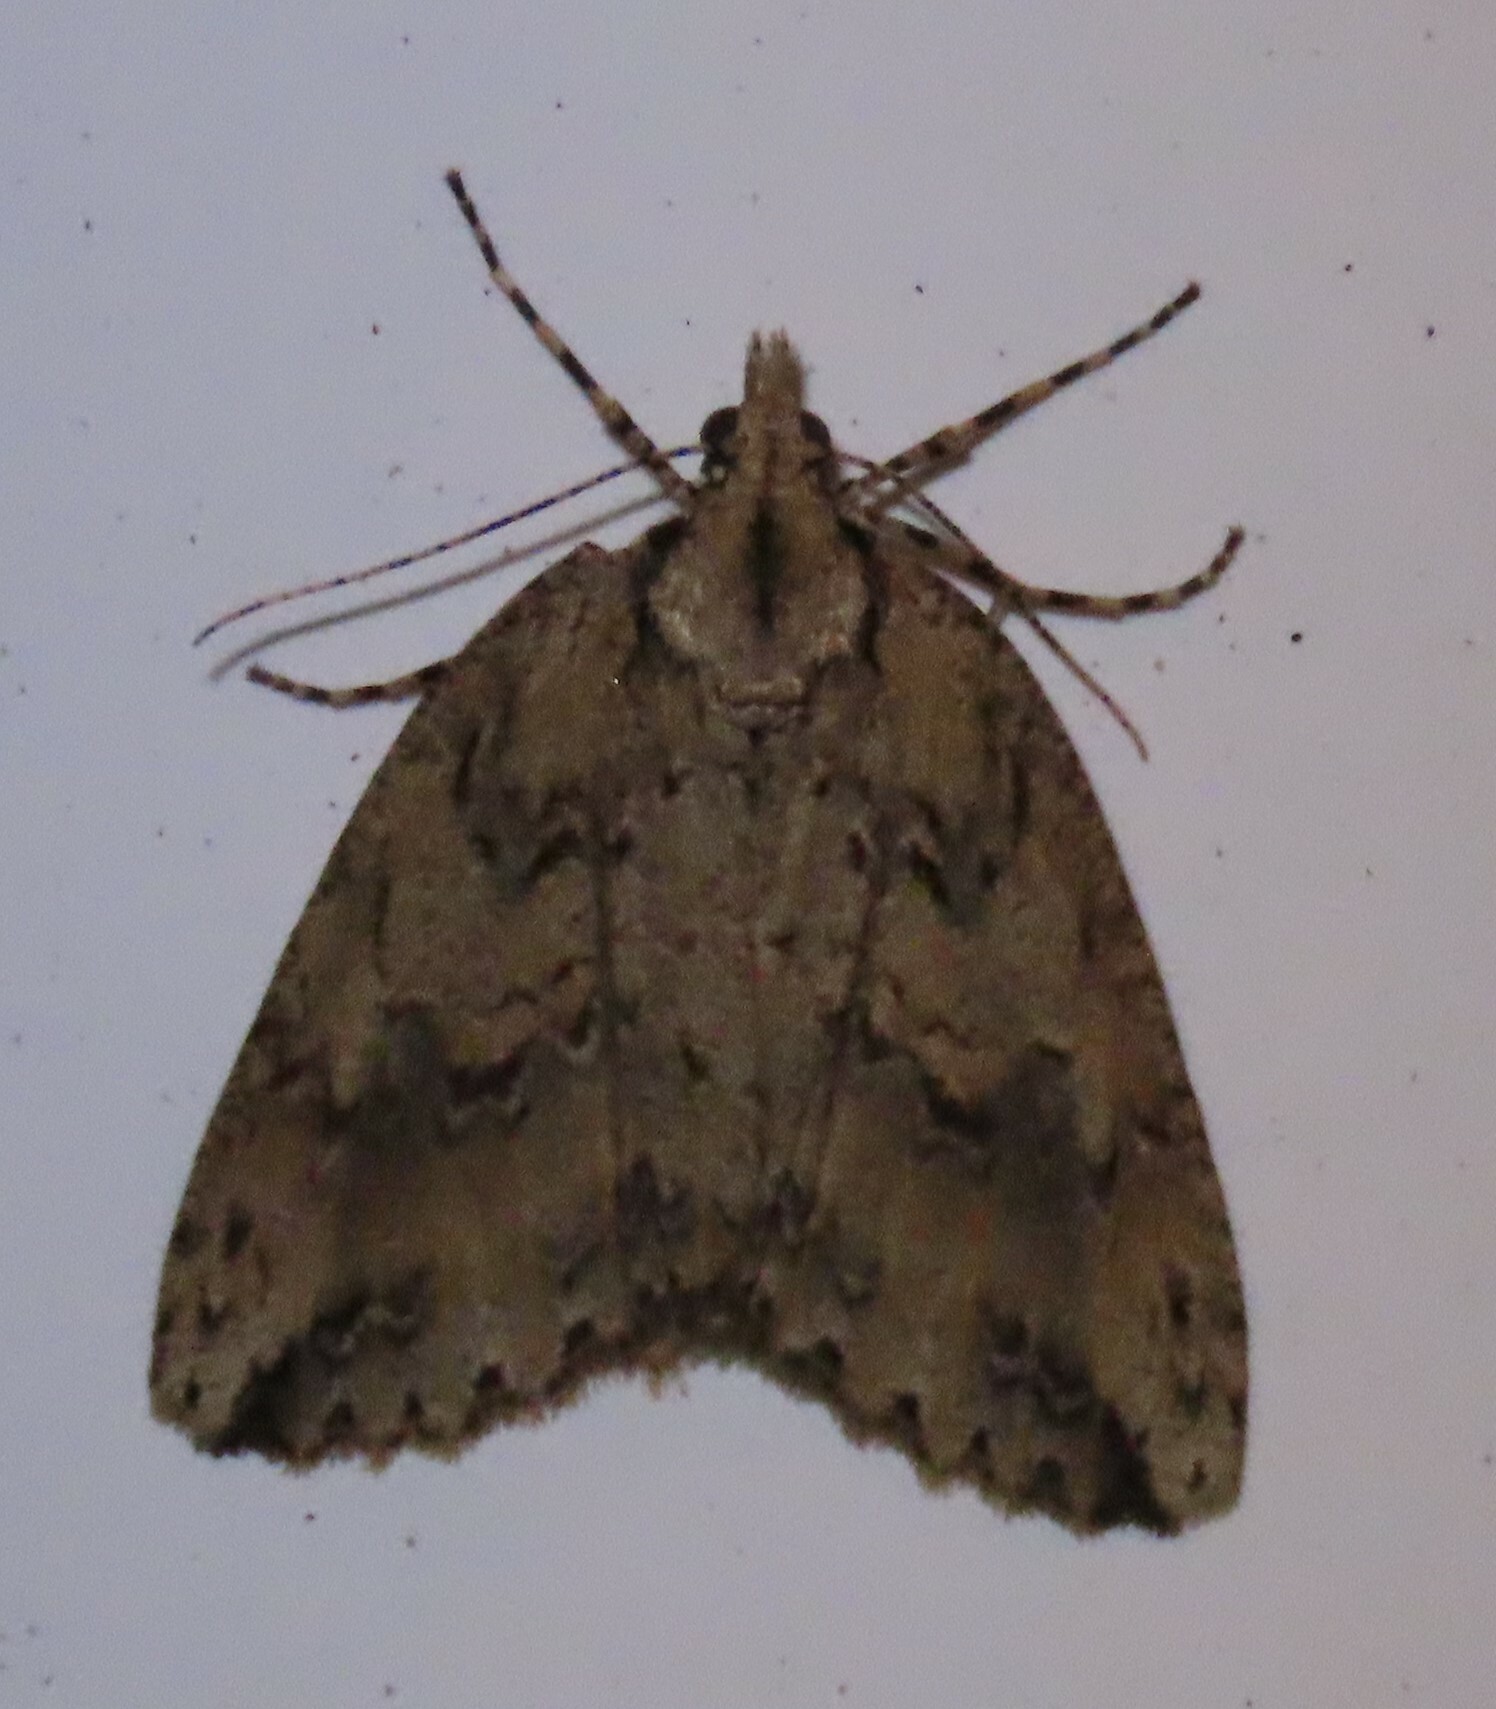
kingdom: Animalia
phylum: Arthropoda
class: Insecta
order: Lepidoptera
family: Geometridae
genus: Pseudocoremia
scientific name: Pseudocoremia rudisata
